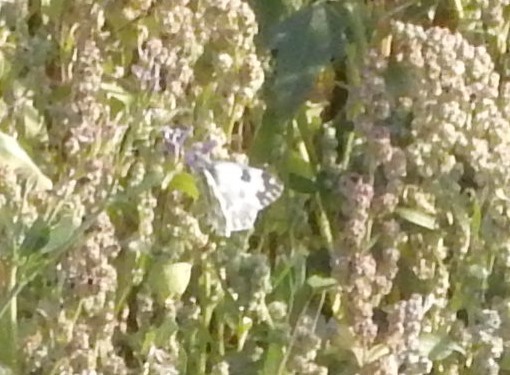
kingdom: Animalia
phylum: Arthropoda
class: Insecta
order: Lepidoptera
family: Pieridae
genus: Pontia
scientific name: Pontia edusa
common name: Eastern bath white
